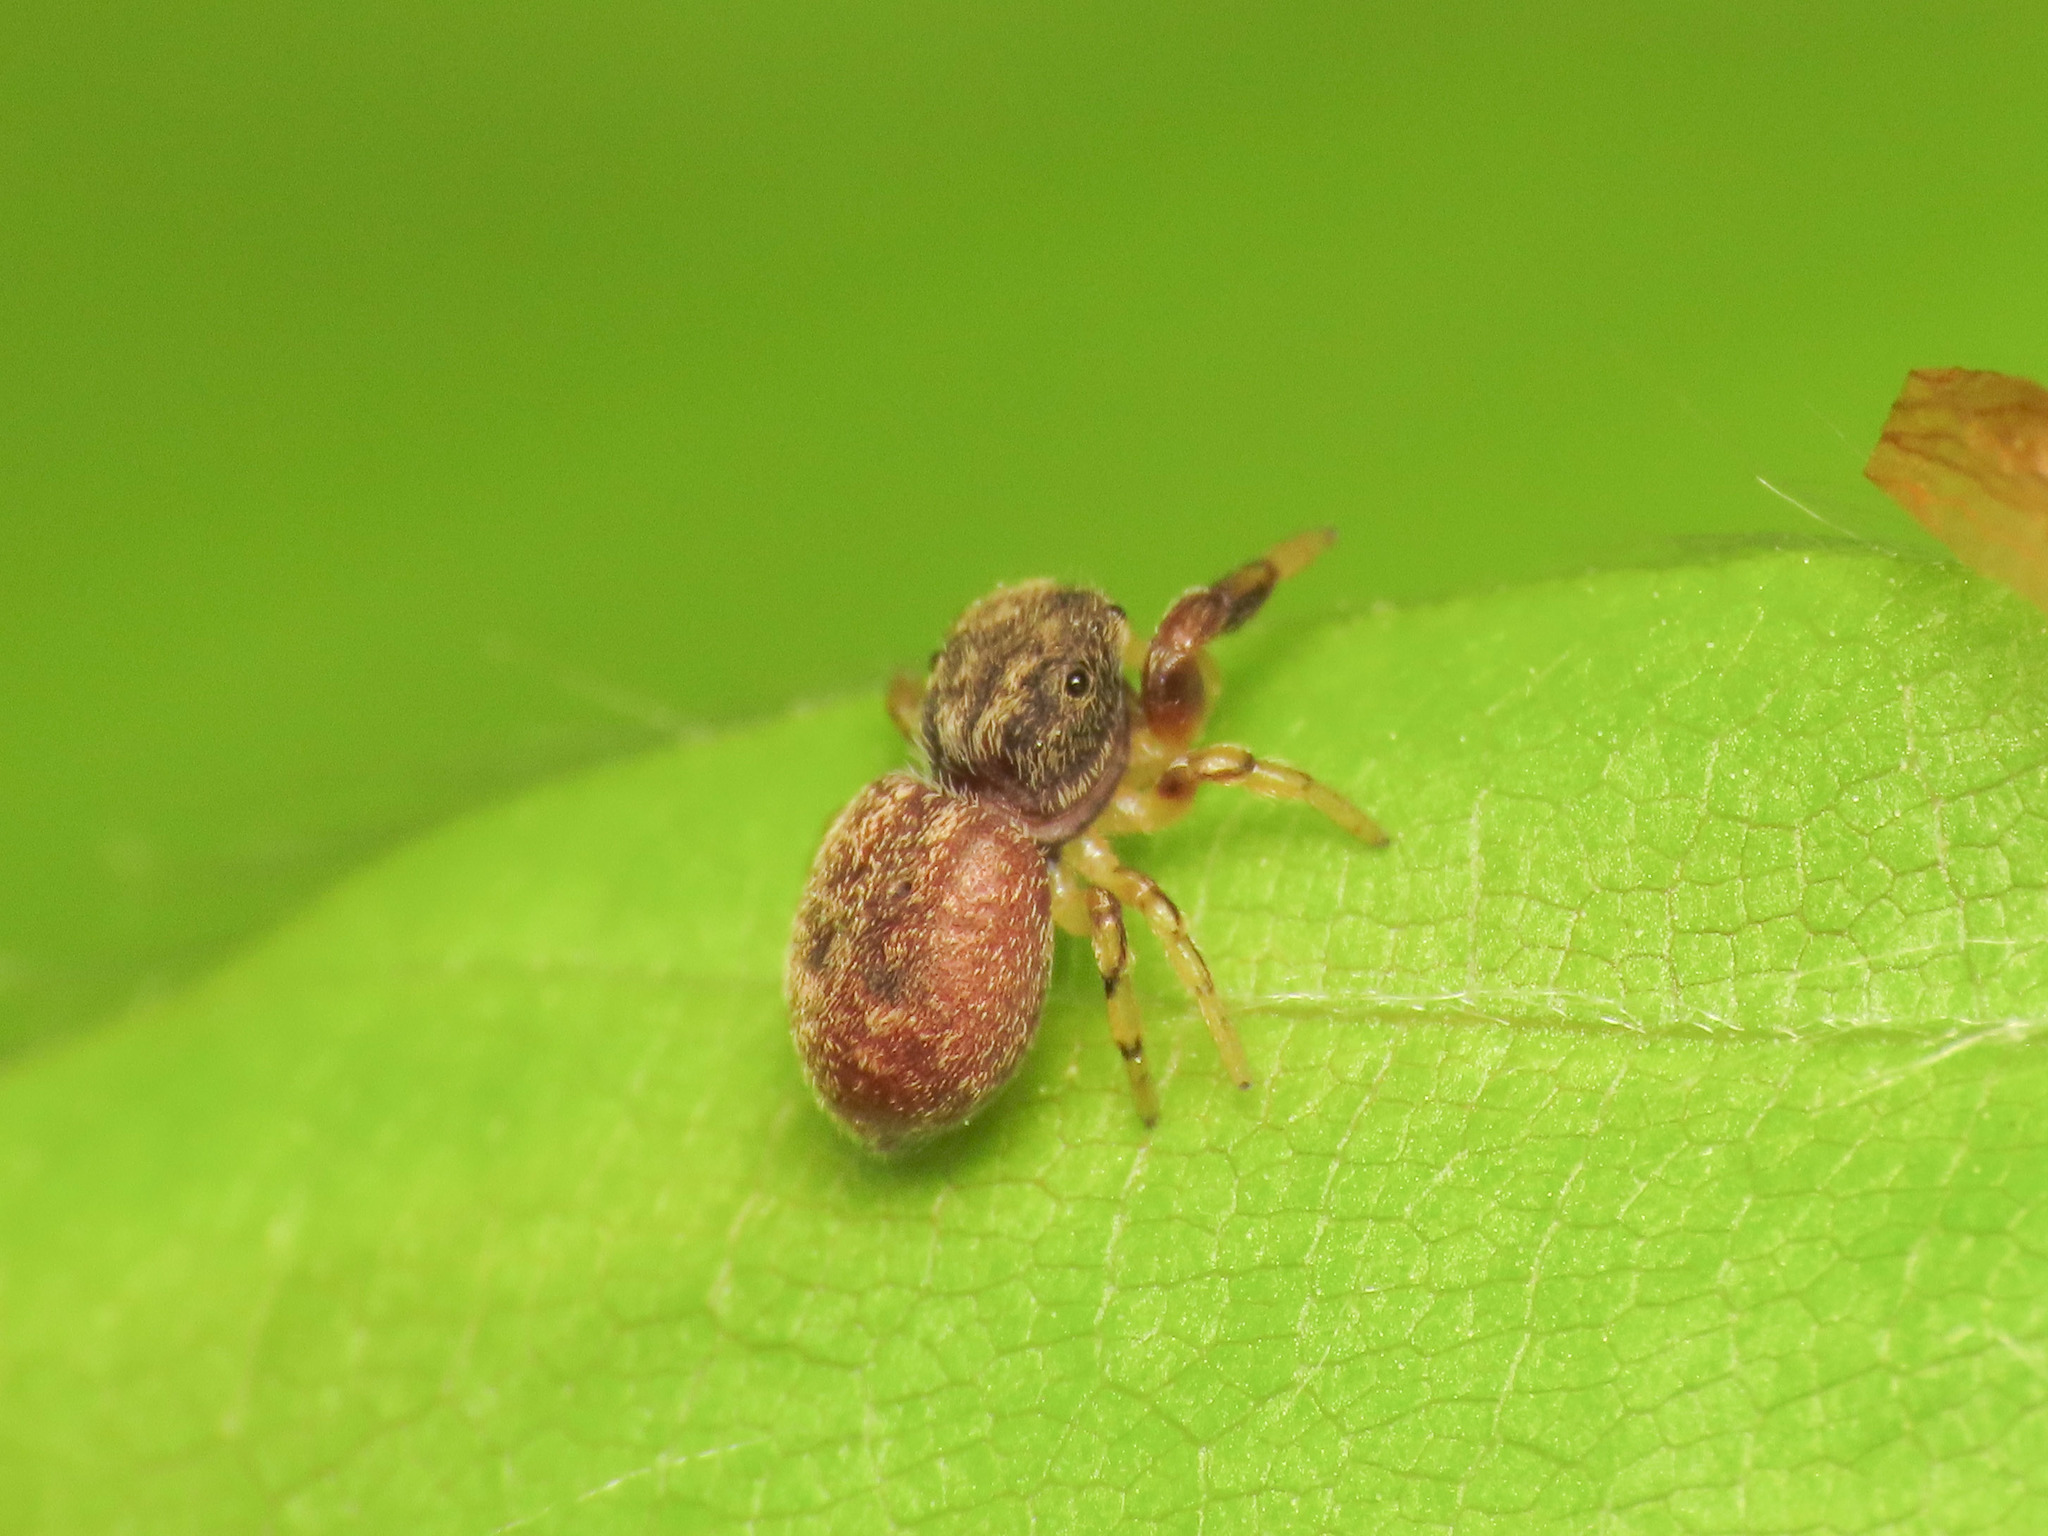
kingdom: Animalia
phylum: Arthropoda
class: Arachnida
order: Araneae
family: Salticidae
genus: Ballus
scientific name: Ballus chalybeius
